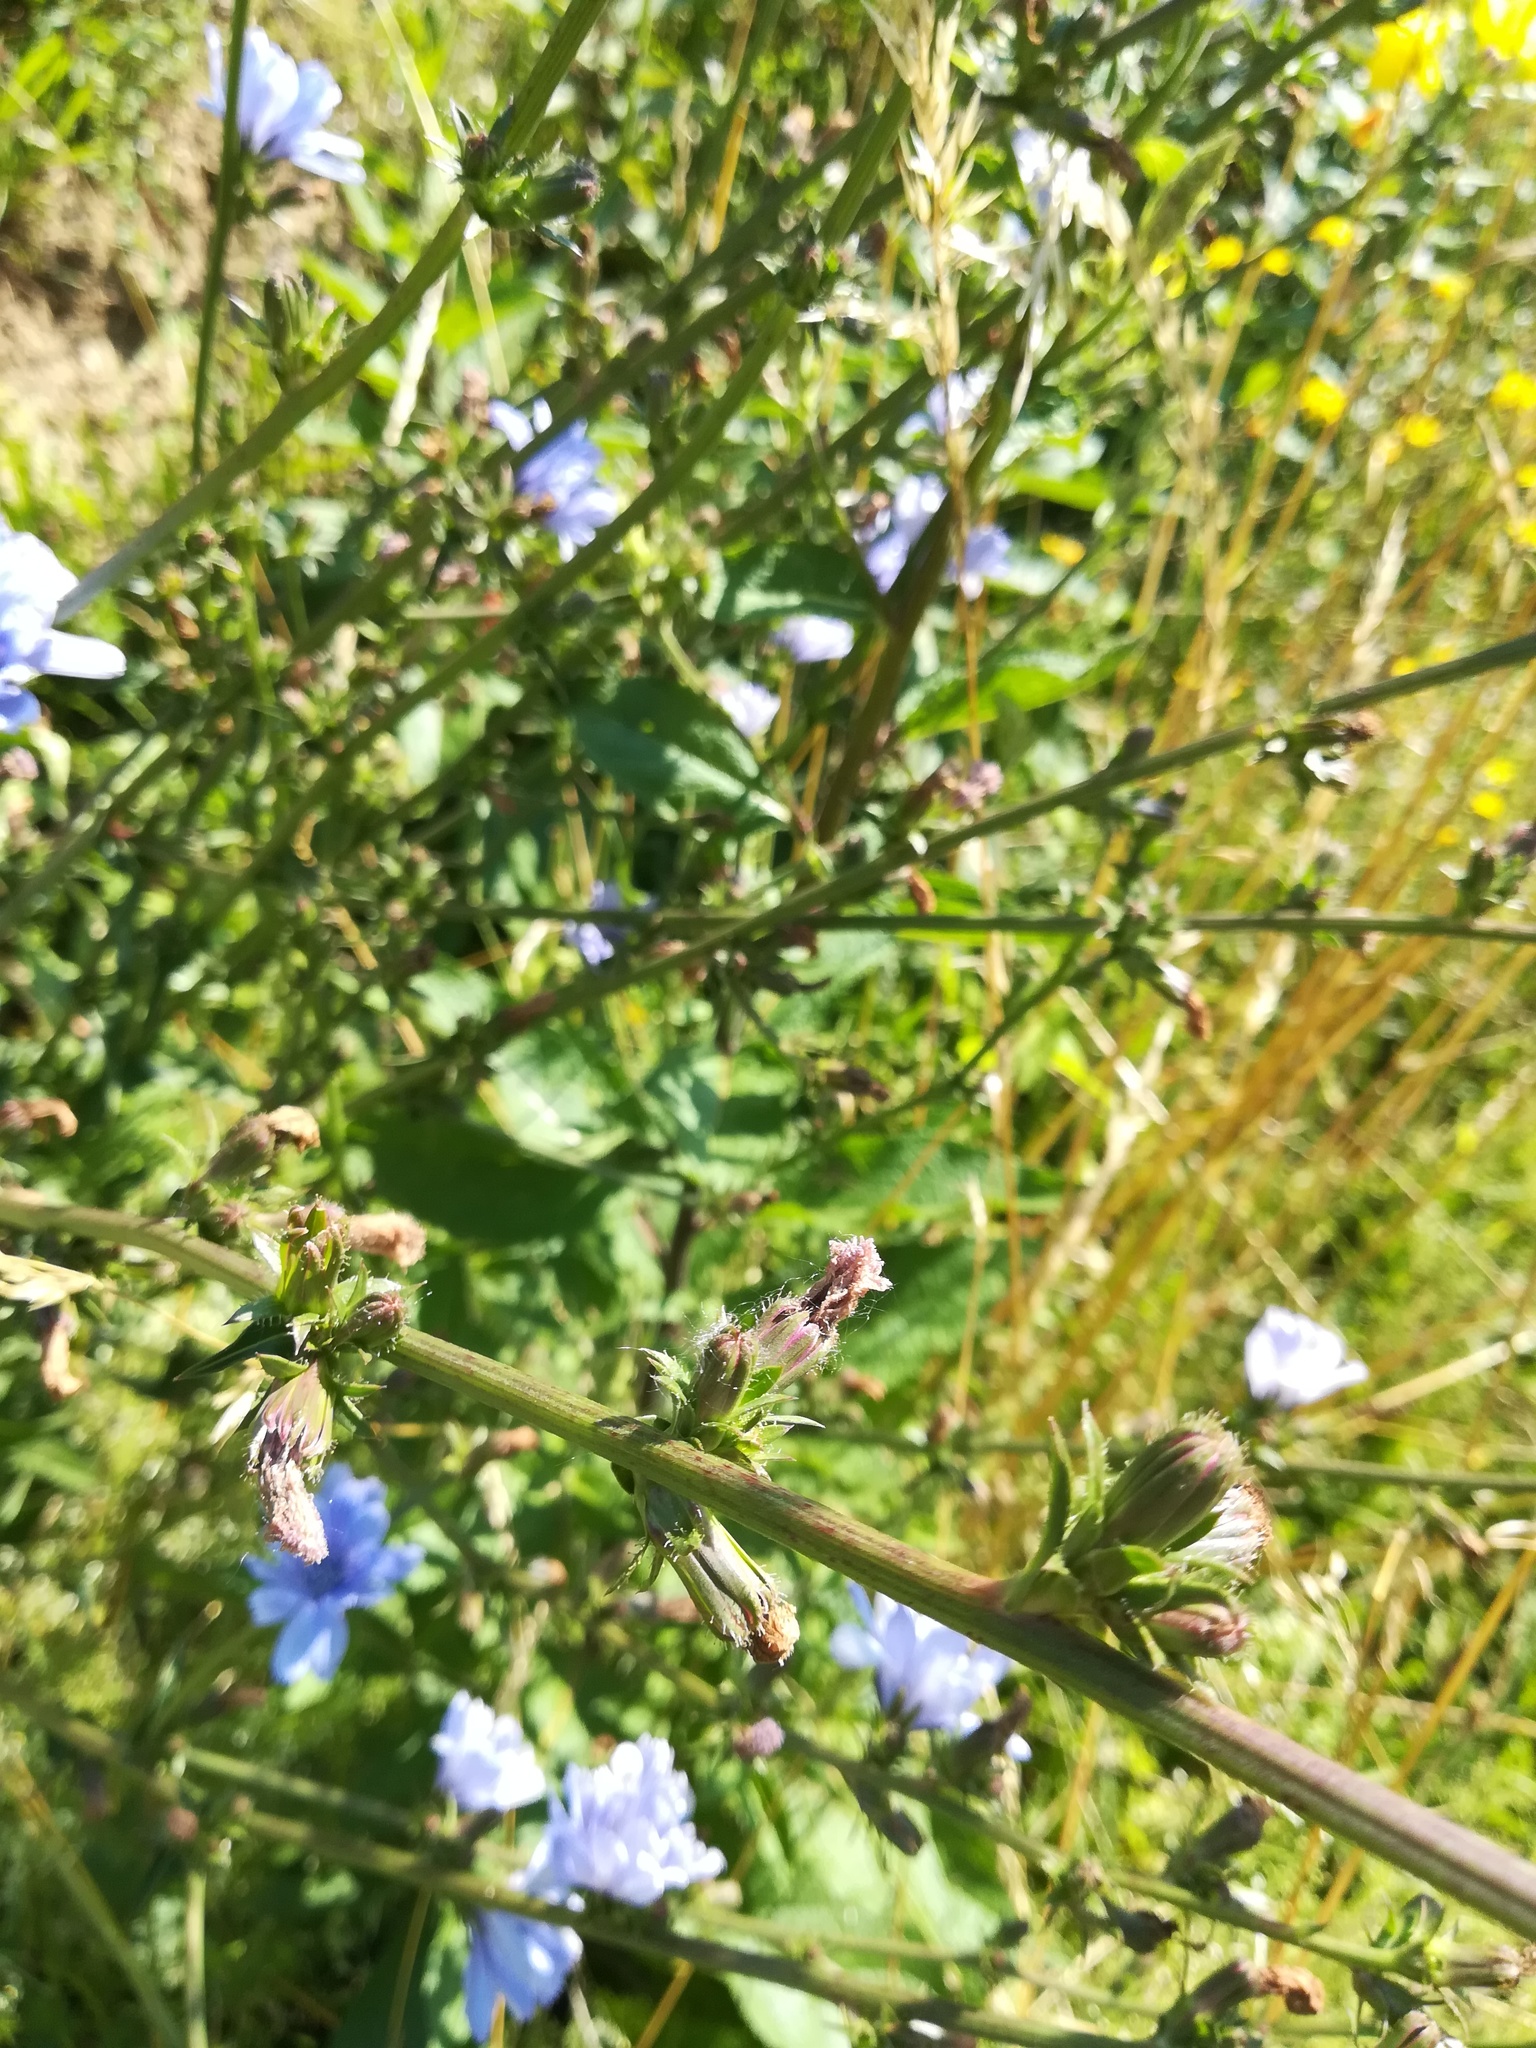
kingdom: Plantae
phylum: Tracheophyta
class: Magnoliopsida
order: Asterales
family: Asteraceae
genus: Cichorium
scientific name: Cichorium intybus
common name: Chicory
